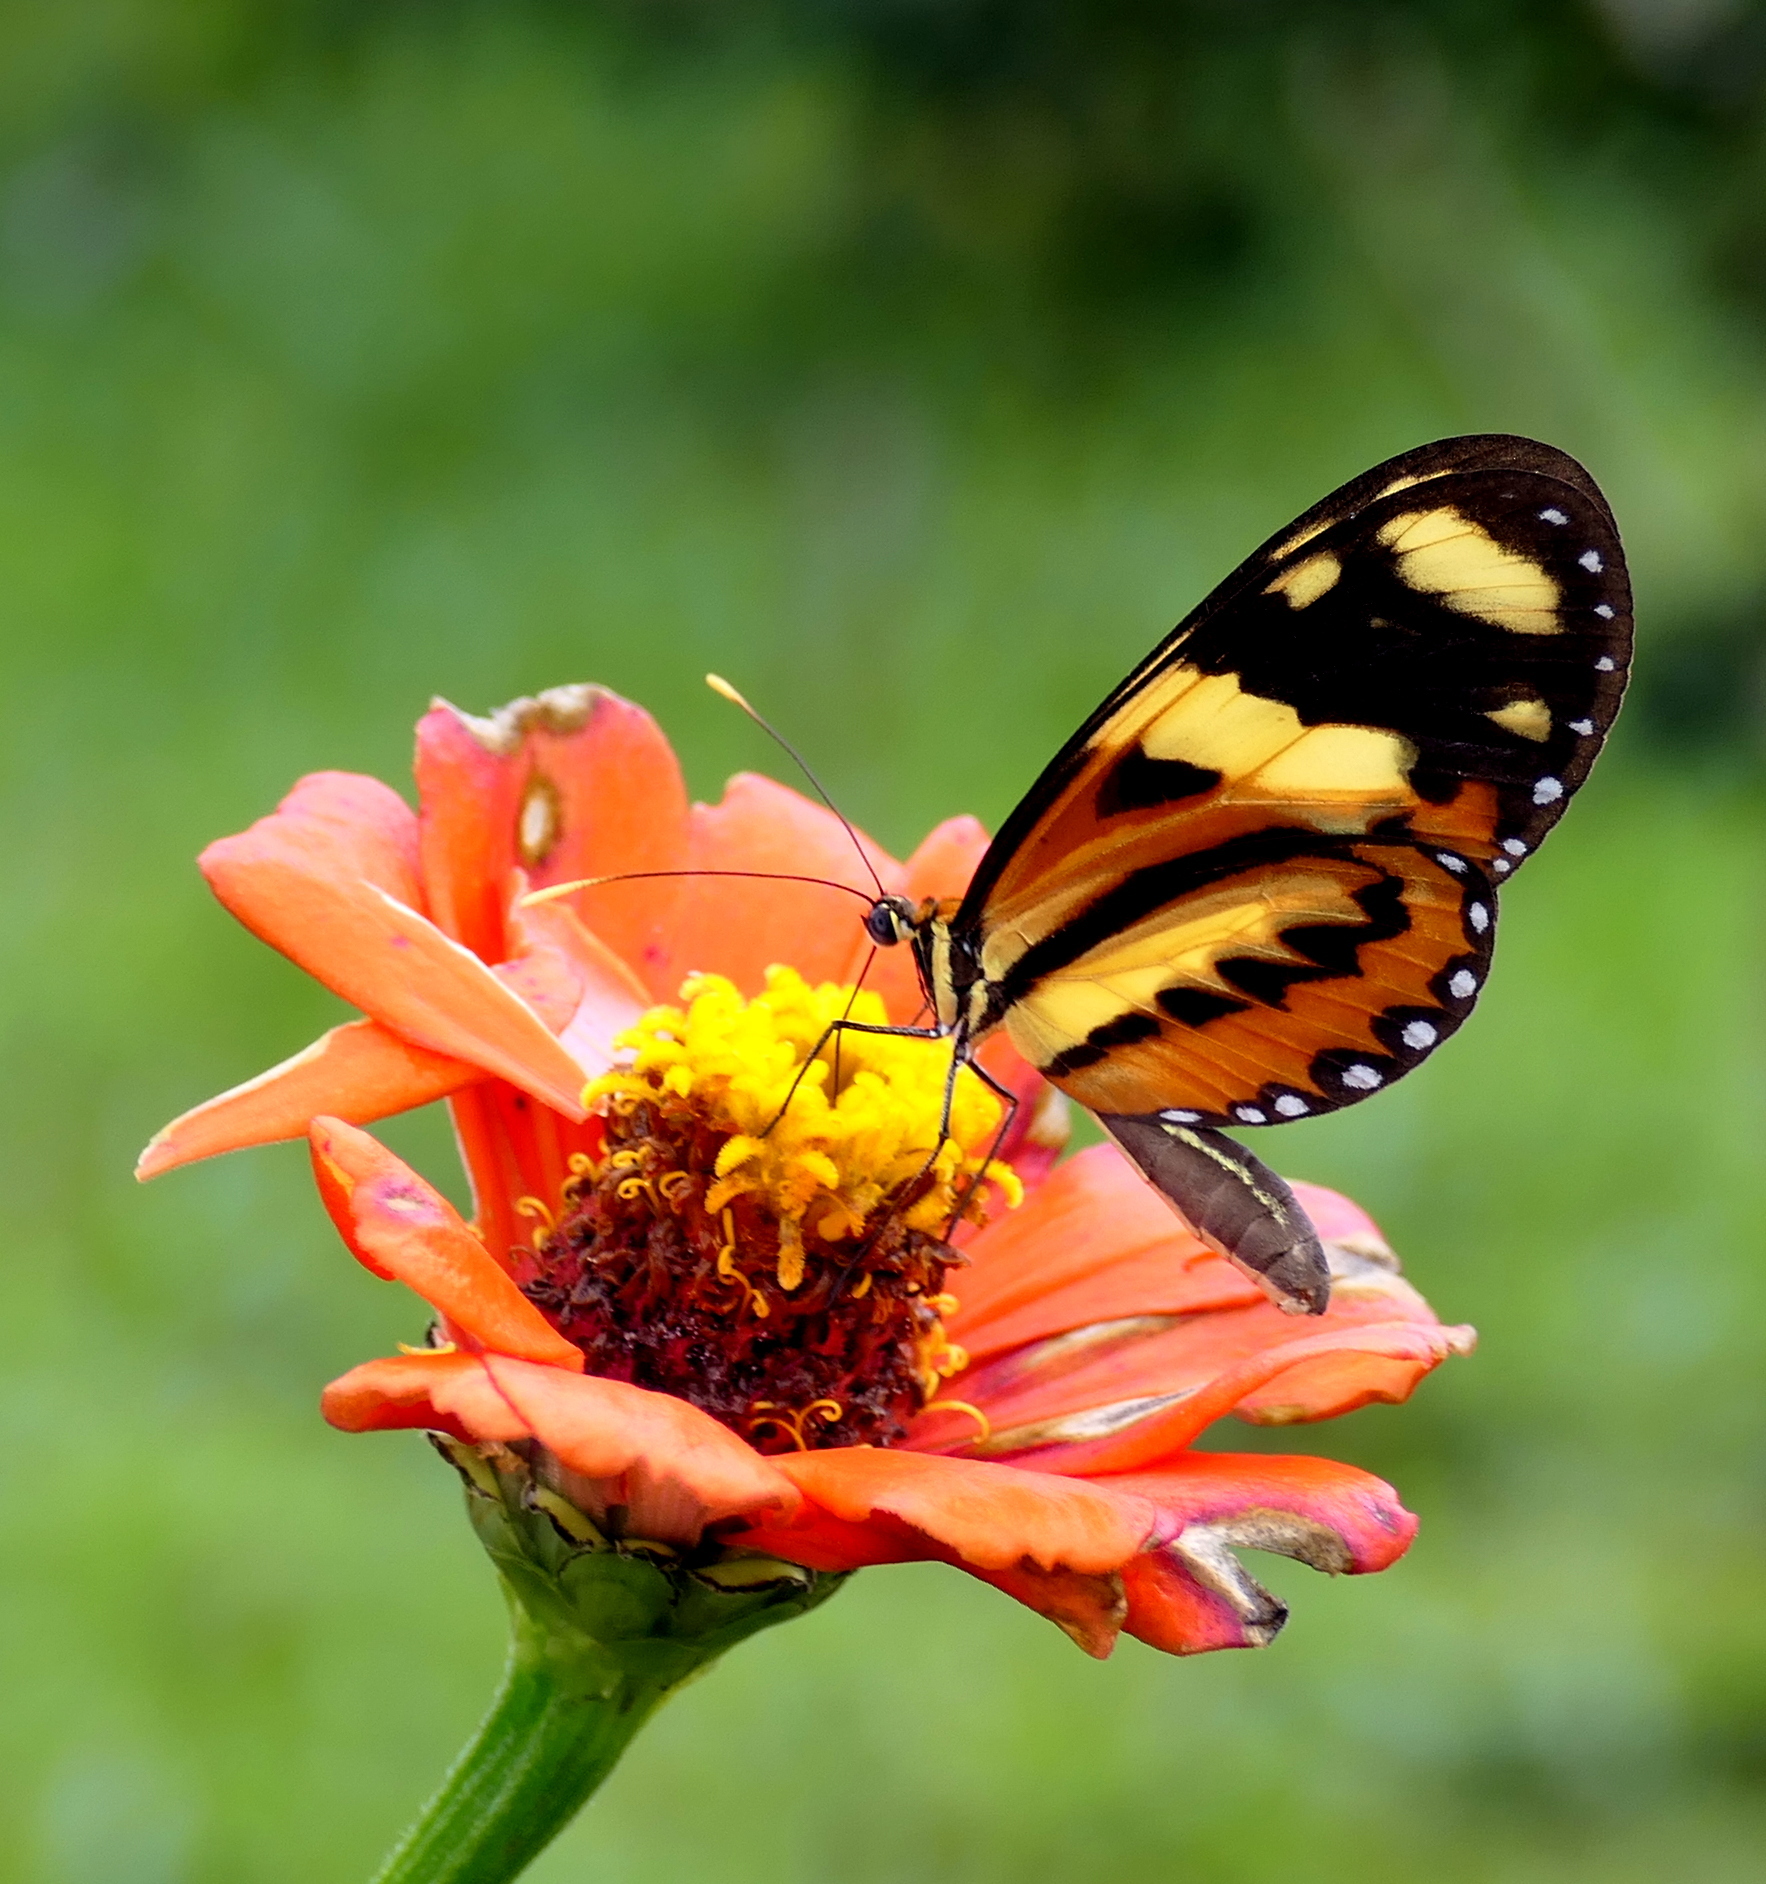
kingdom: Animalia
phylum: Arthropoda
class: Insecta
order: Lepidoptera
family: Nymphalidae
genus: Mechanitis
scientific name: Mechanitis lysimnia
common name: Lysimnia tigerwing
